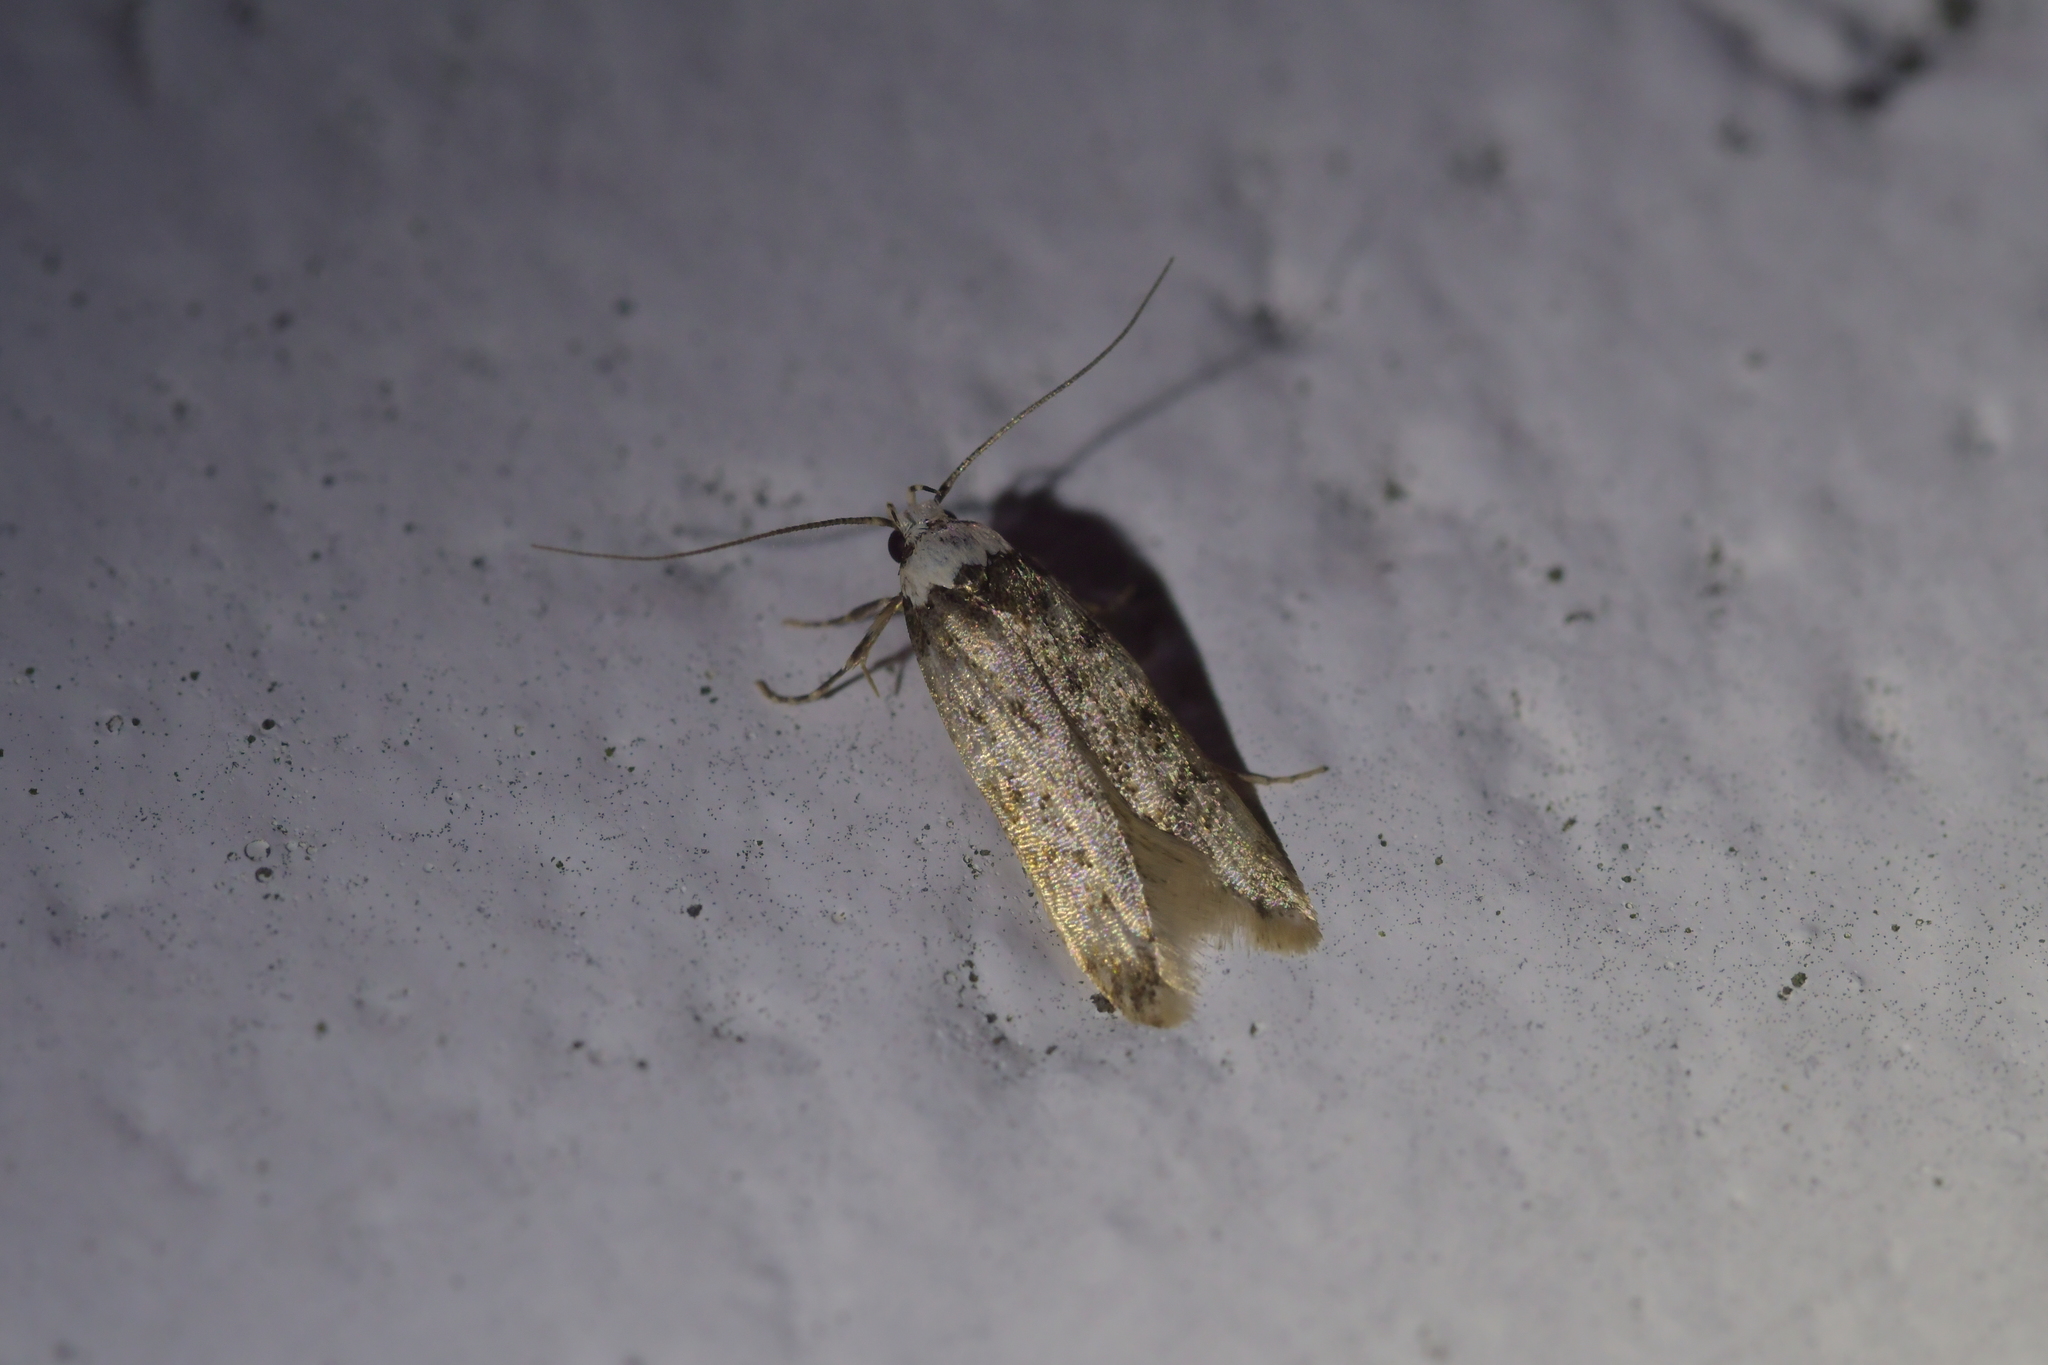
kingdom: Animalia
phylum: Arthropoda
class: Insecta
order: Lepidoptera
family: Oecophoridae
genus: Endrosis
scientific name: Endrosis sarcitrella
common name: White-shouldered house moth
